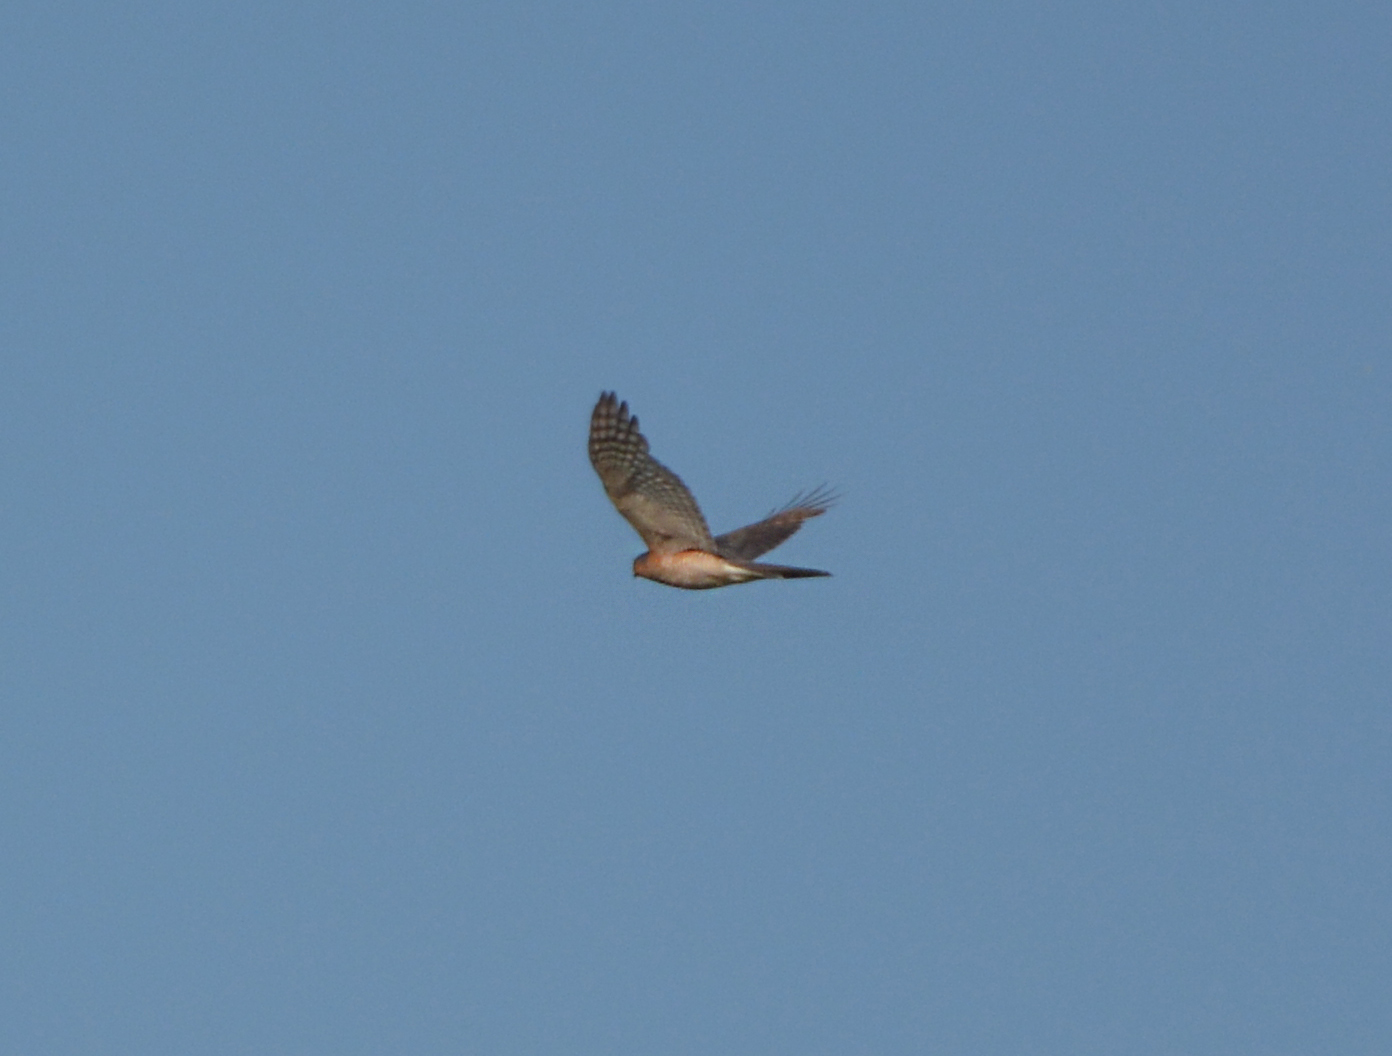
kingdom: Animalia
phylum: Chordata
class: Aves
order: Accipitriformes
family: Accipitridae
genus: Accipiter
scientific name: Accipiter nisus
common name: Eurasian sparrowhawk
